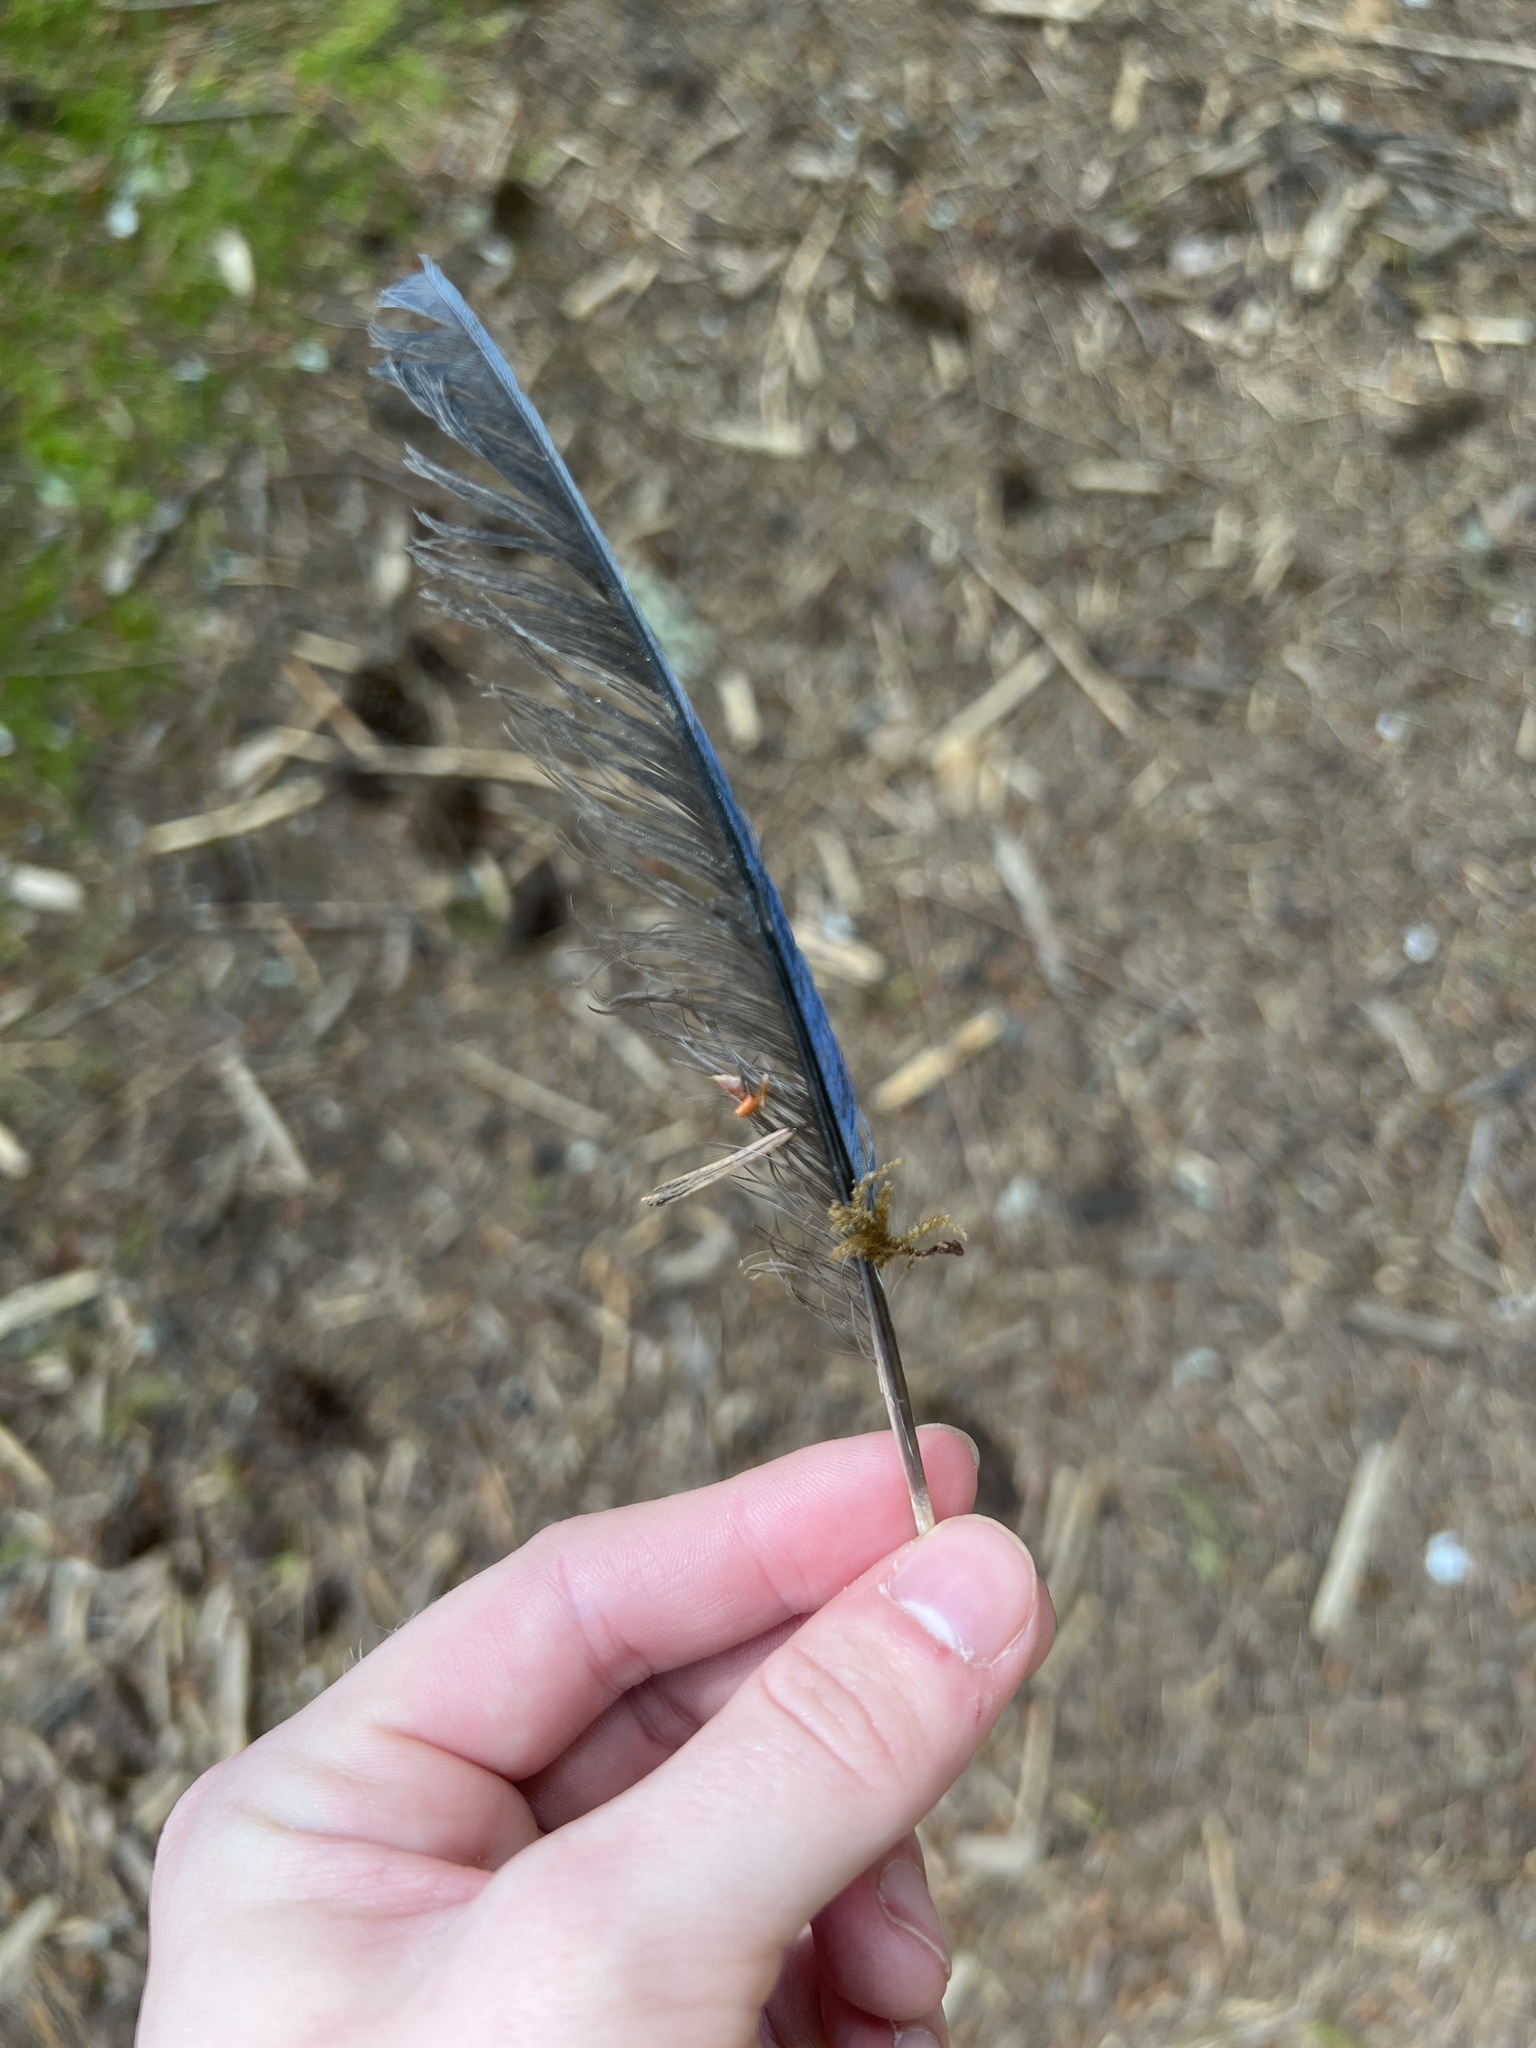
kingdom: Animalia
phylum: Chordata
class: Aves
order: Passeriformes
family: Corvidae
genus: Cyanocitta
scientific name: Cyanocitta stelleri
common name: Steller's jay
